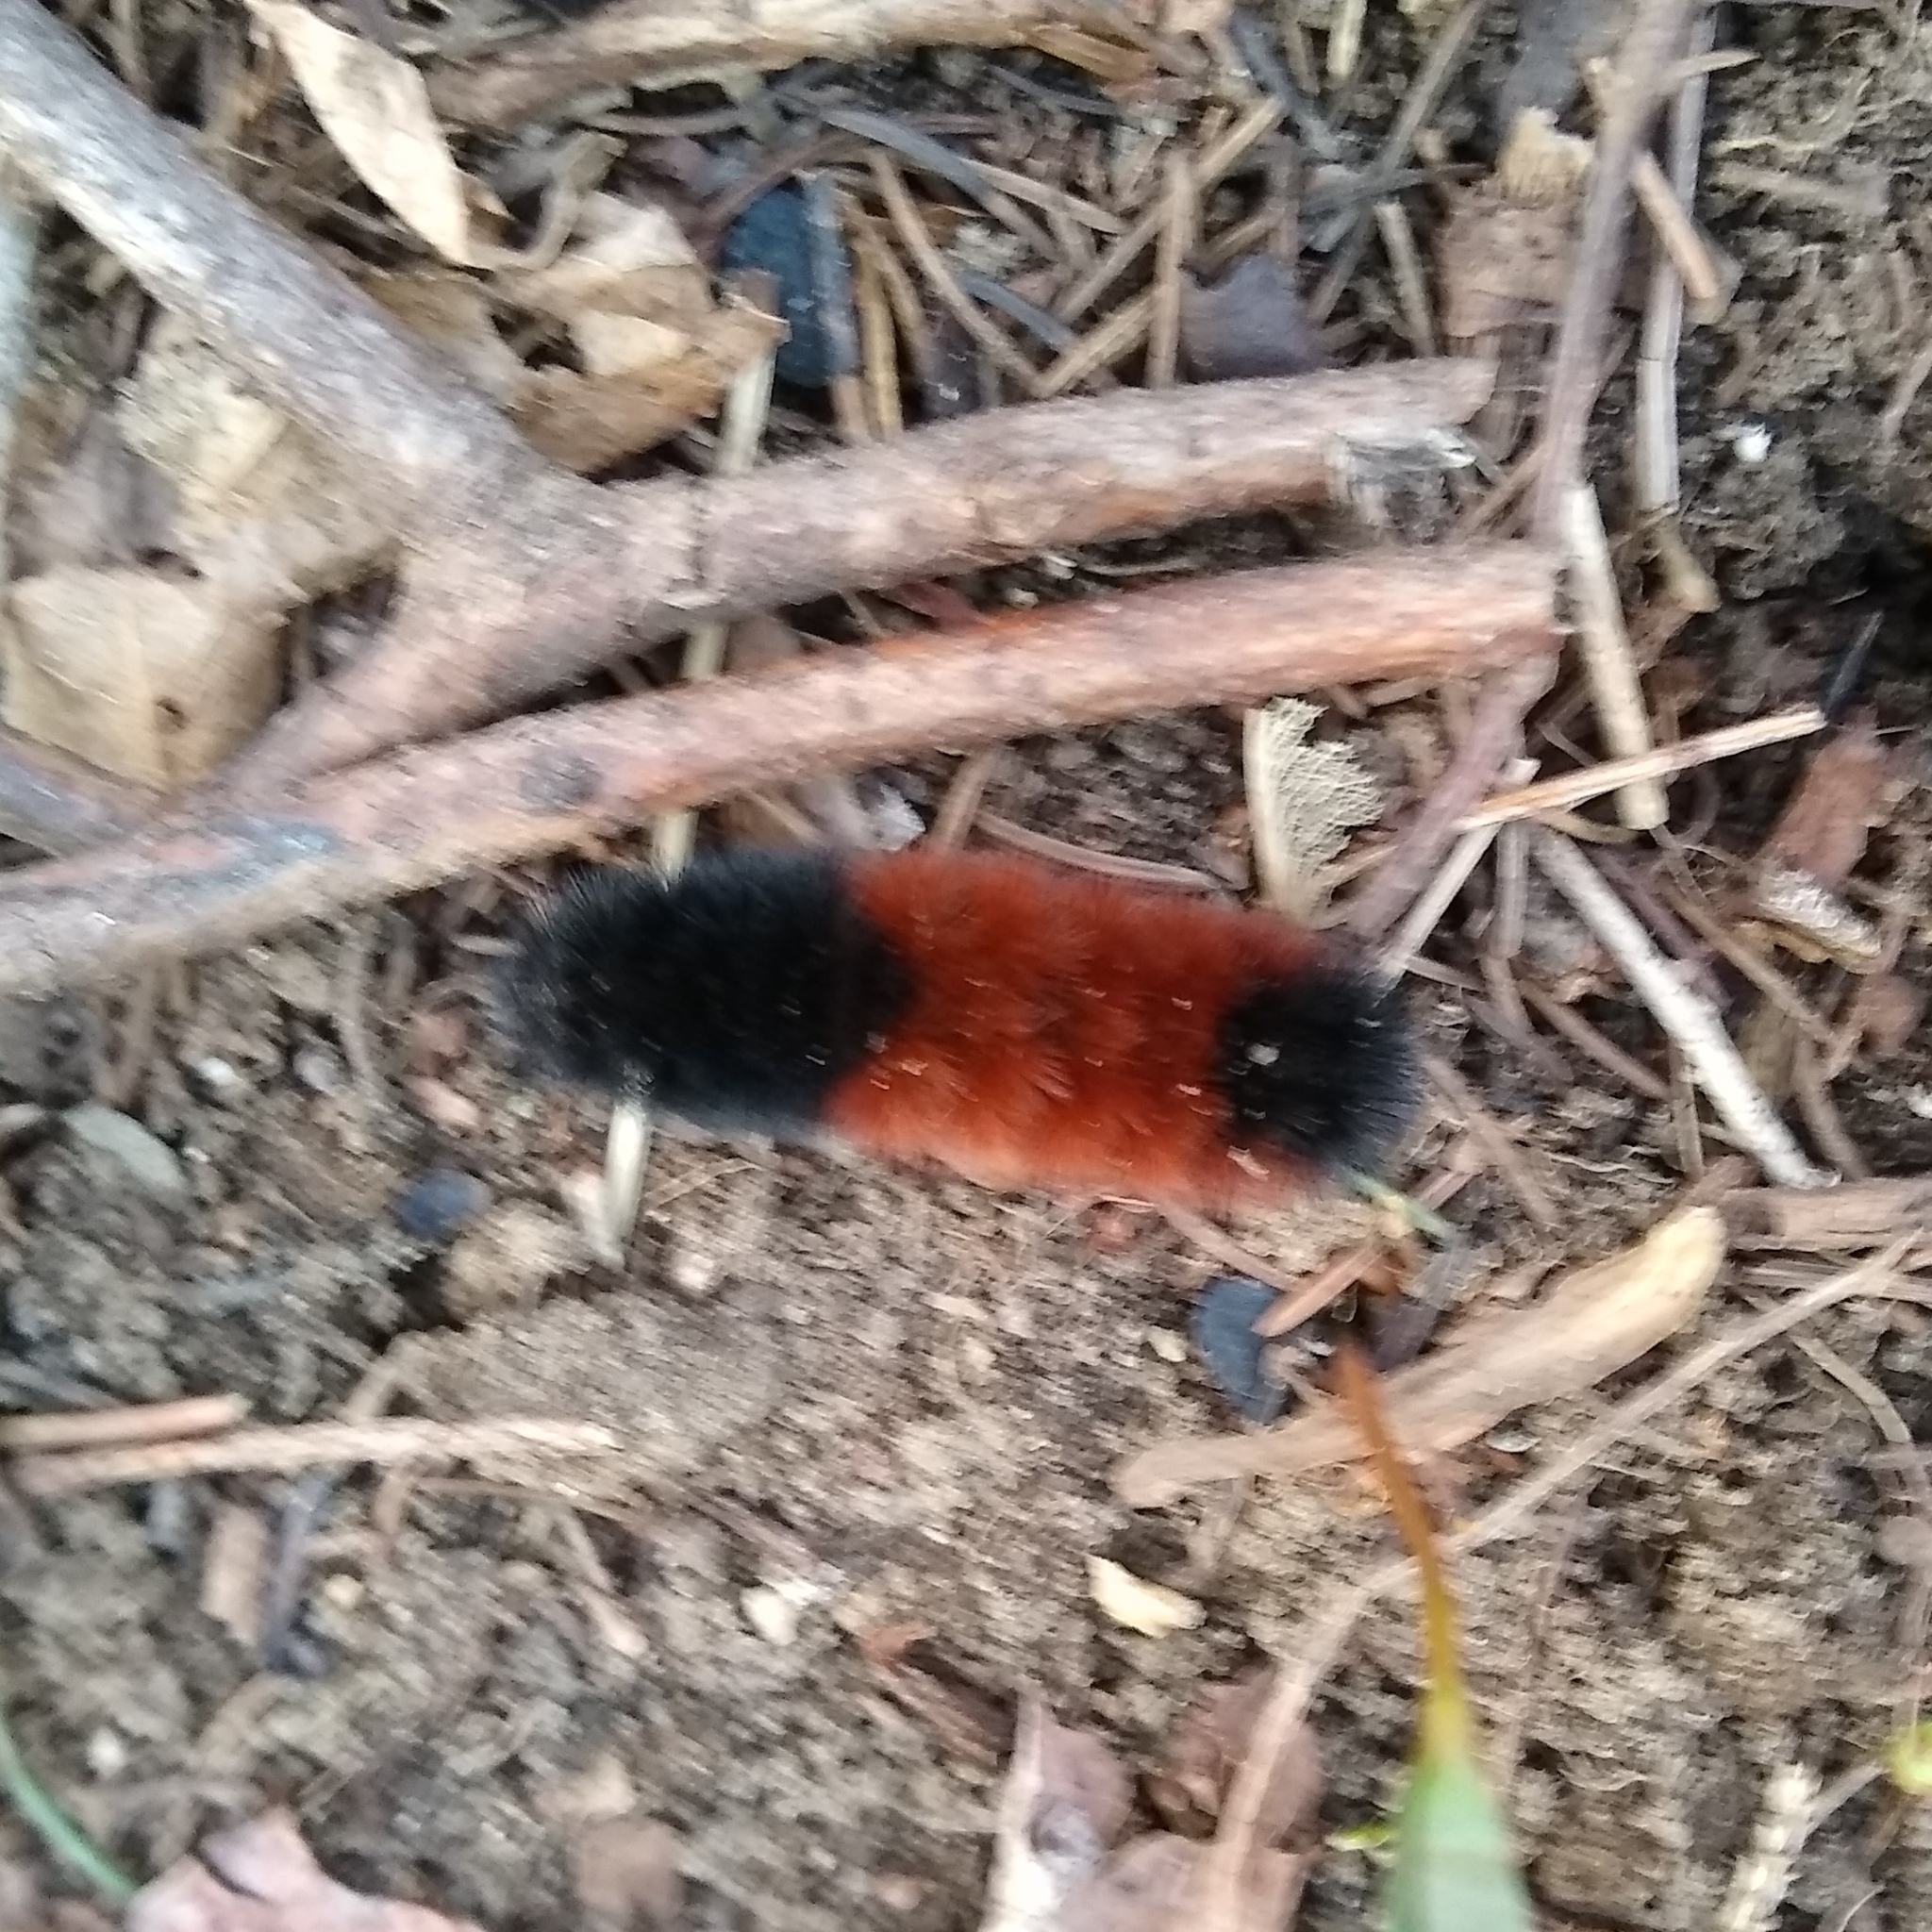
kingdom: Animalia
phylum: Arthropoda
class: Insecta
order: Lepidoptera
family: Erebidae
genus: Pyrrharctia
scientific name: Pyrrharctia isabella
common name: Isabella tiger moth
